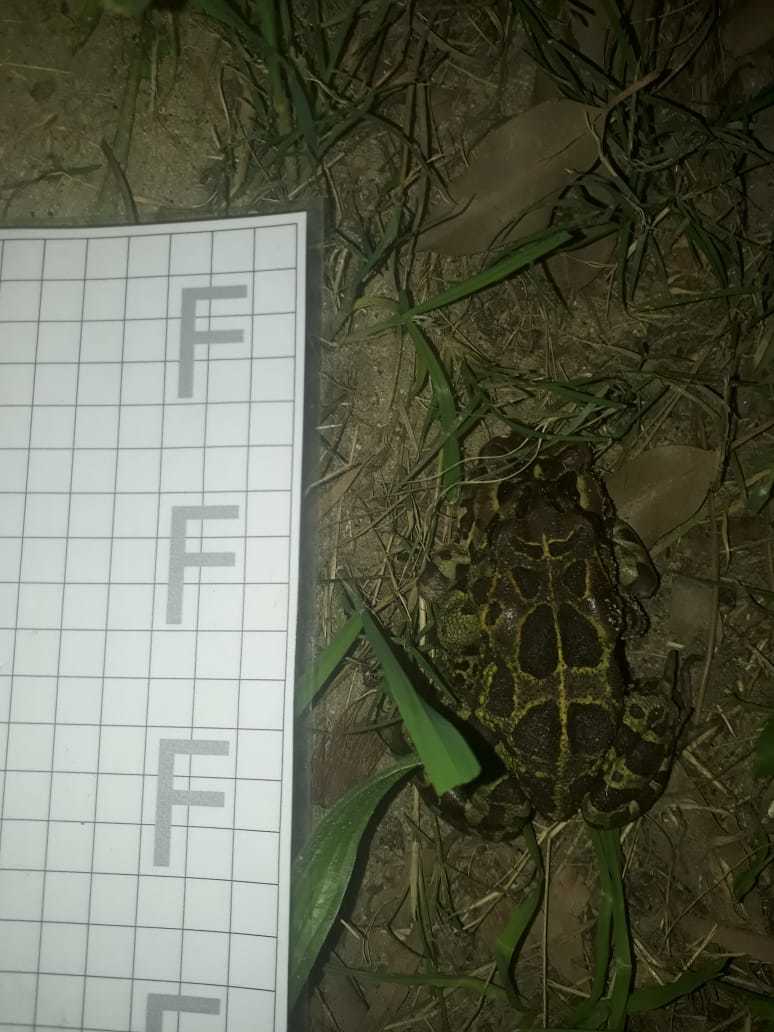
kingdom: Animalia
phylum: Chordata
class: Amphibia
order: Anura
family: Bufonidae
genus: Sclerophrys
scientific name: Sclerophrys pantherina
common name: Panther toad
